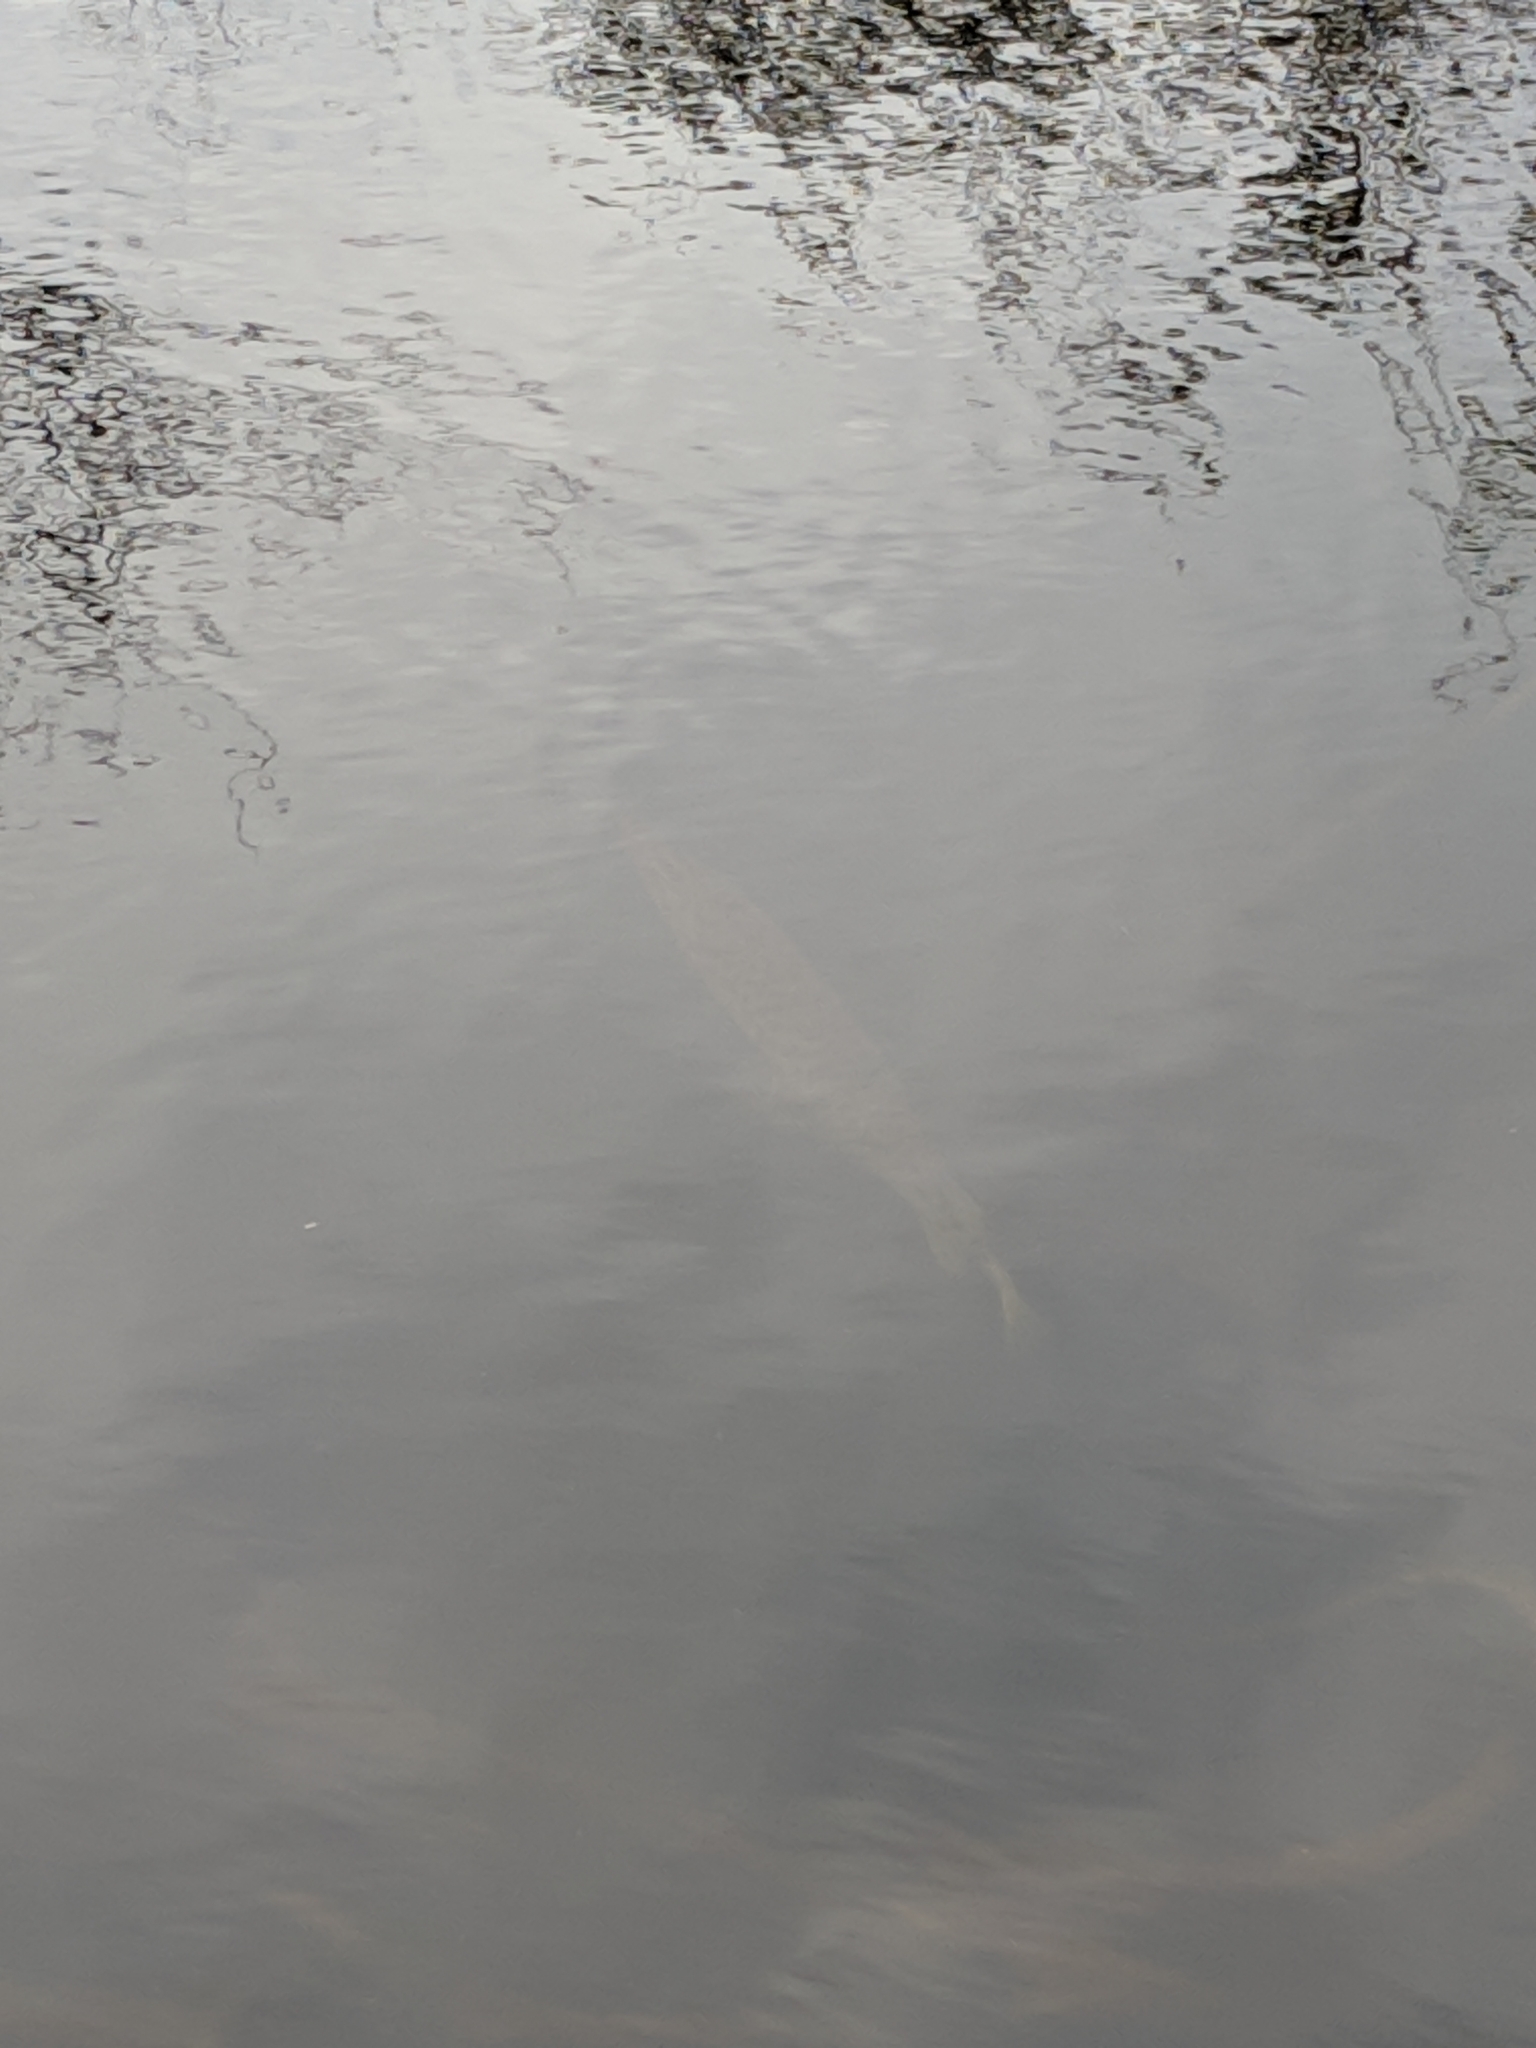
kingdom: Animalia
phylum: Chordata
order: Lepisosteiformes
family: Lepisosteidae
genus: Lepisosteus
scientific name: Lepisosteus platyrhincus
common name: Florida gar
